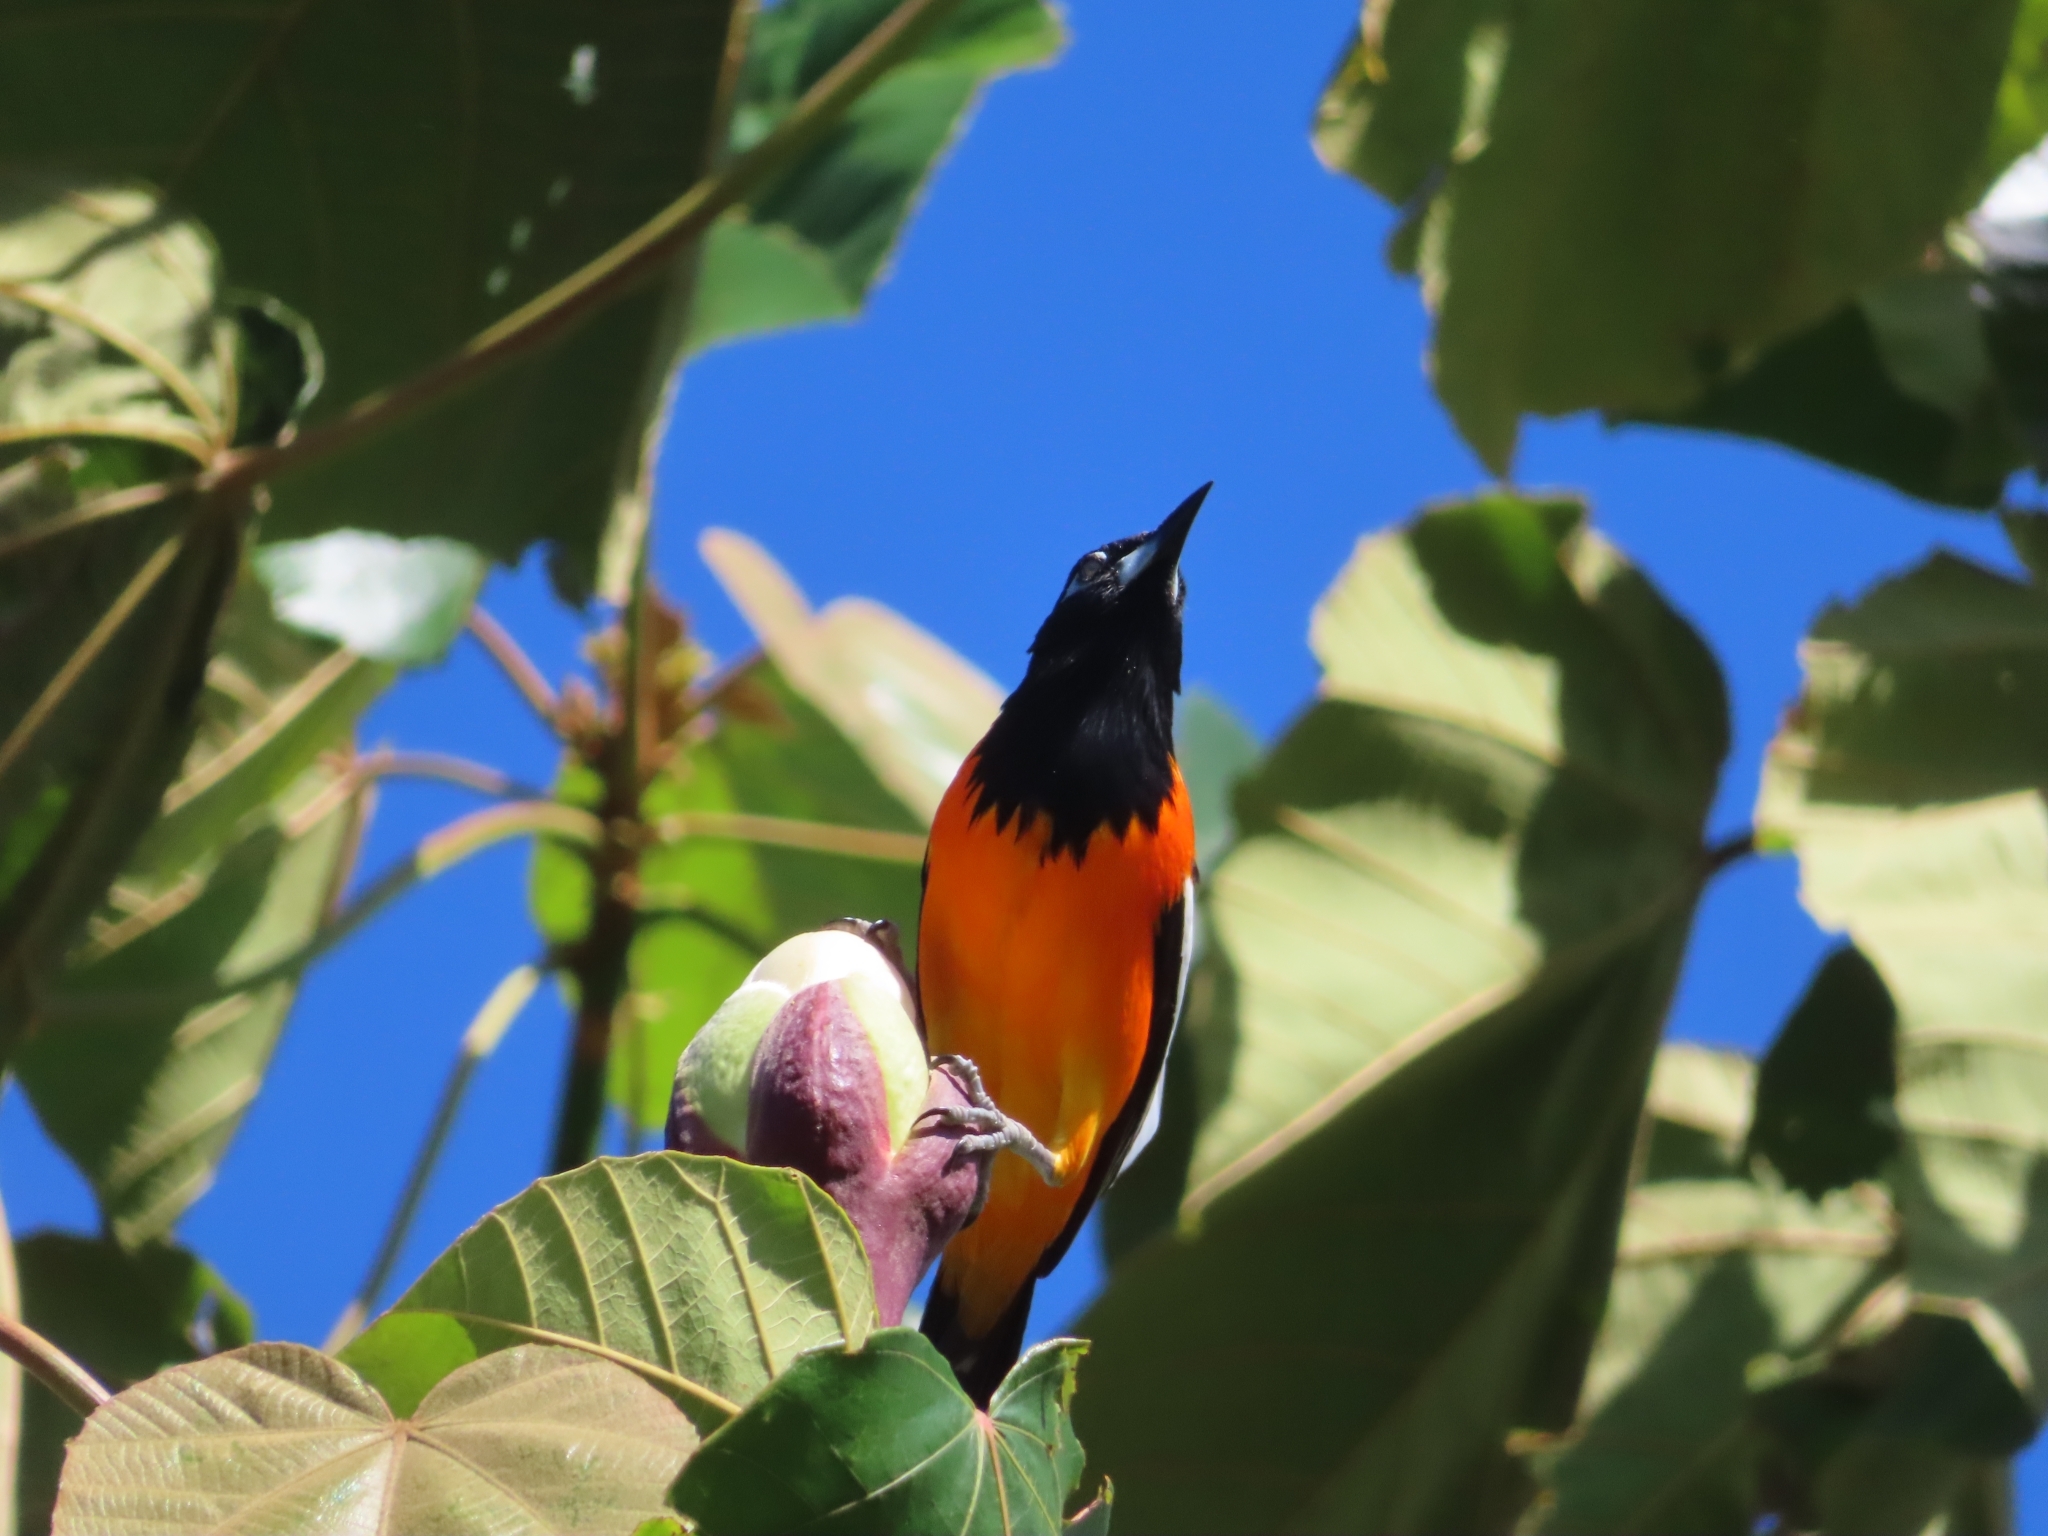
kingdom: Animalia
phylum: Chordata
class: Aves
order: Passeriformes
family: Icteridae
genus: Icterus
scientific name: Icterus icterus
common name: Venezuelan troupial
